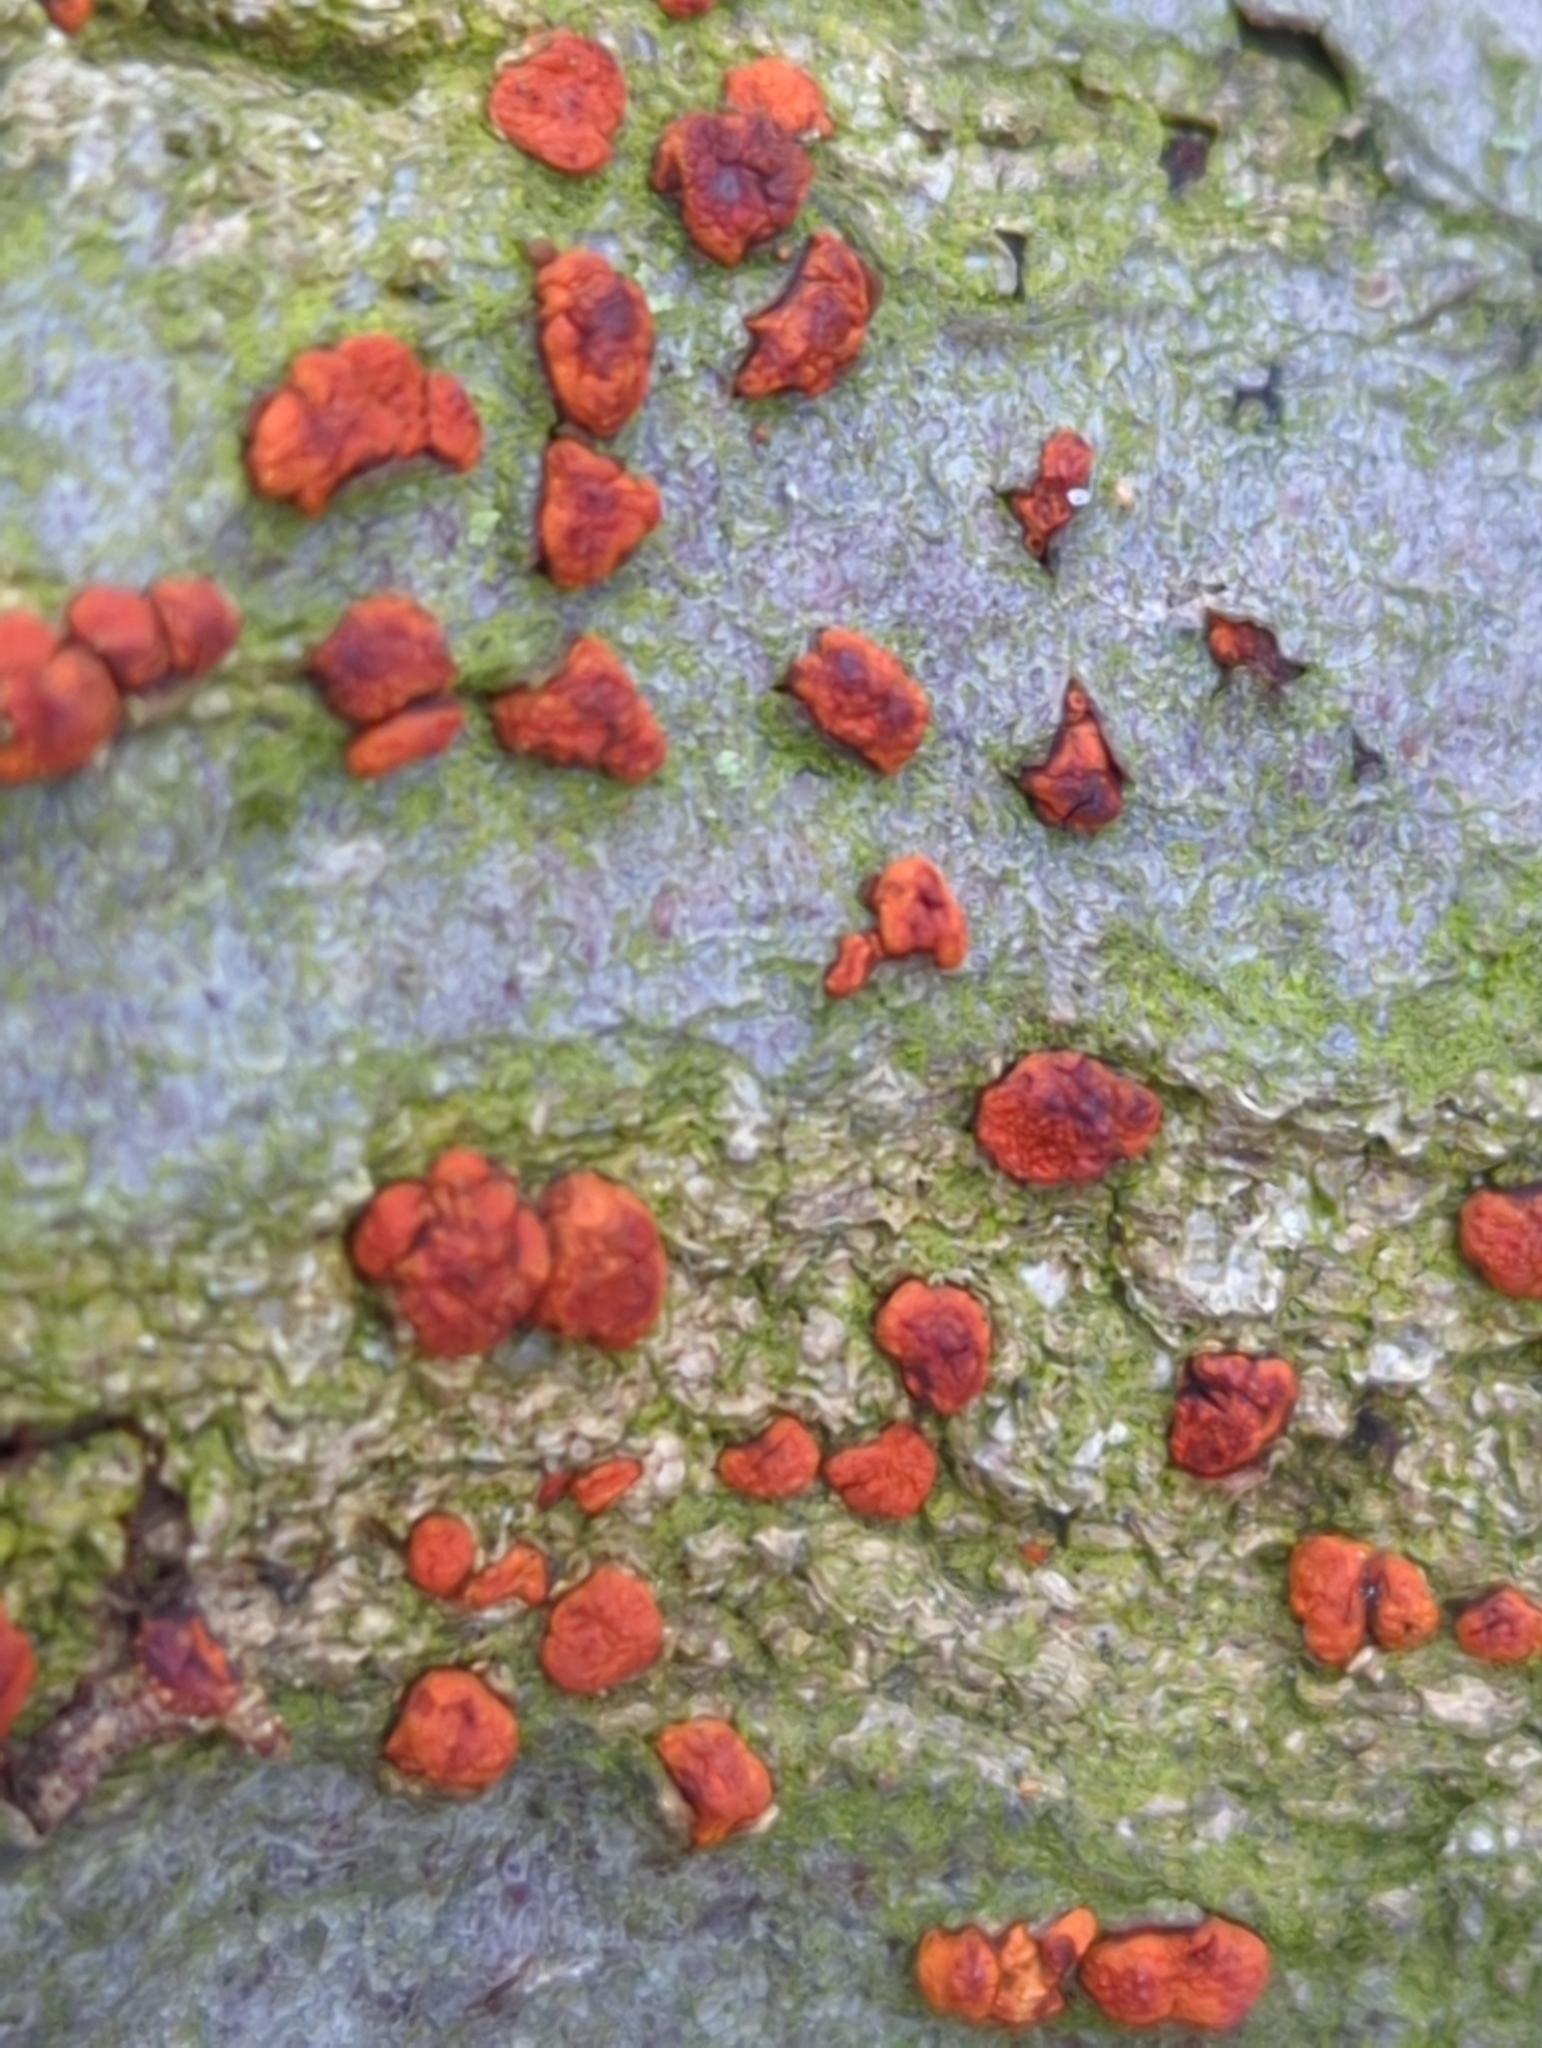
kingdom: Fungi
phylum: Ascomycota
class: Sordariomycetes
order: Diaporthales
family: Cryphonectriaceae
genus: Amphilogia
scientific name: Amphilogia gyrosa
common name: Orange hobnail canker
